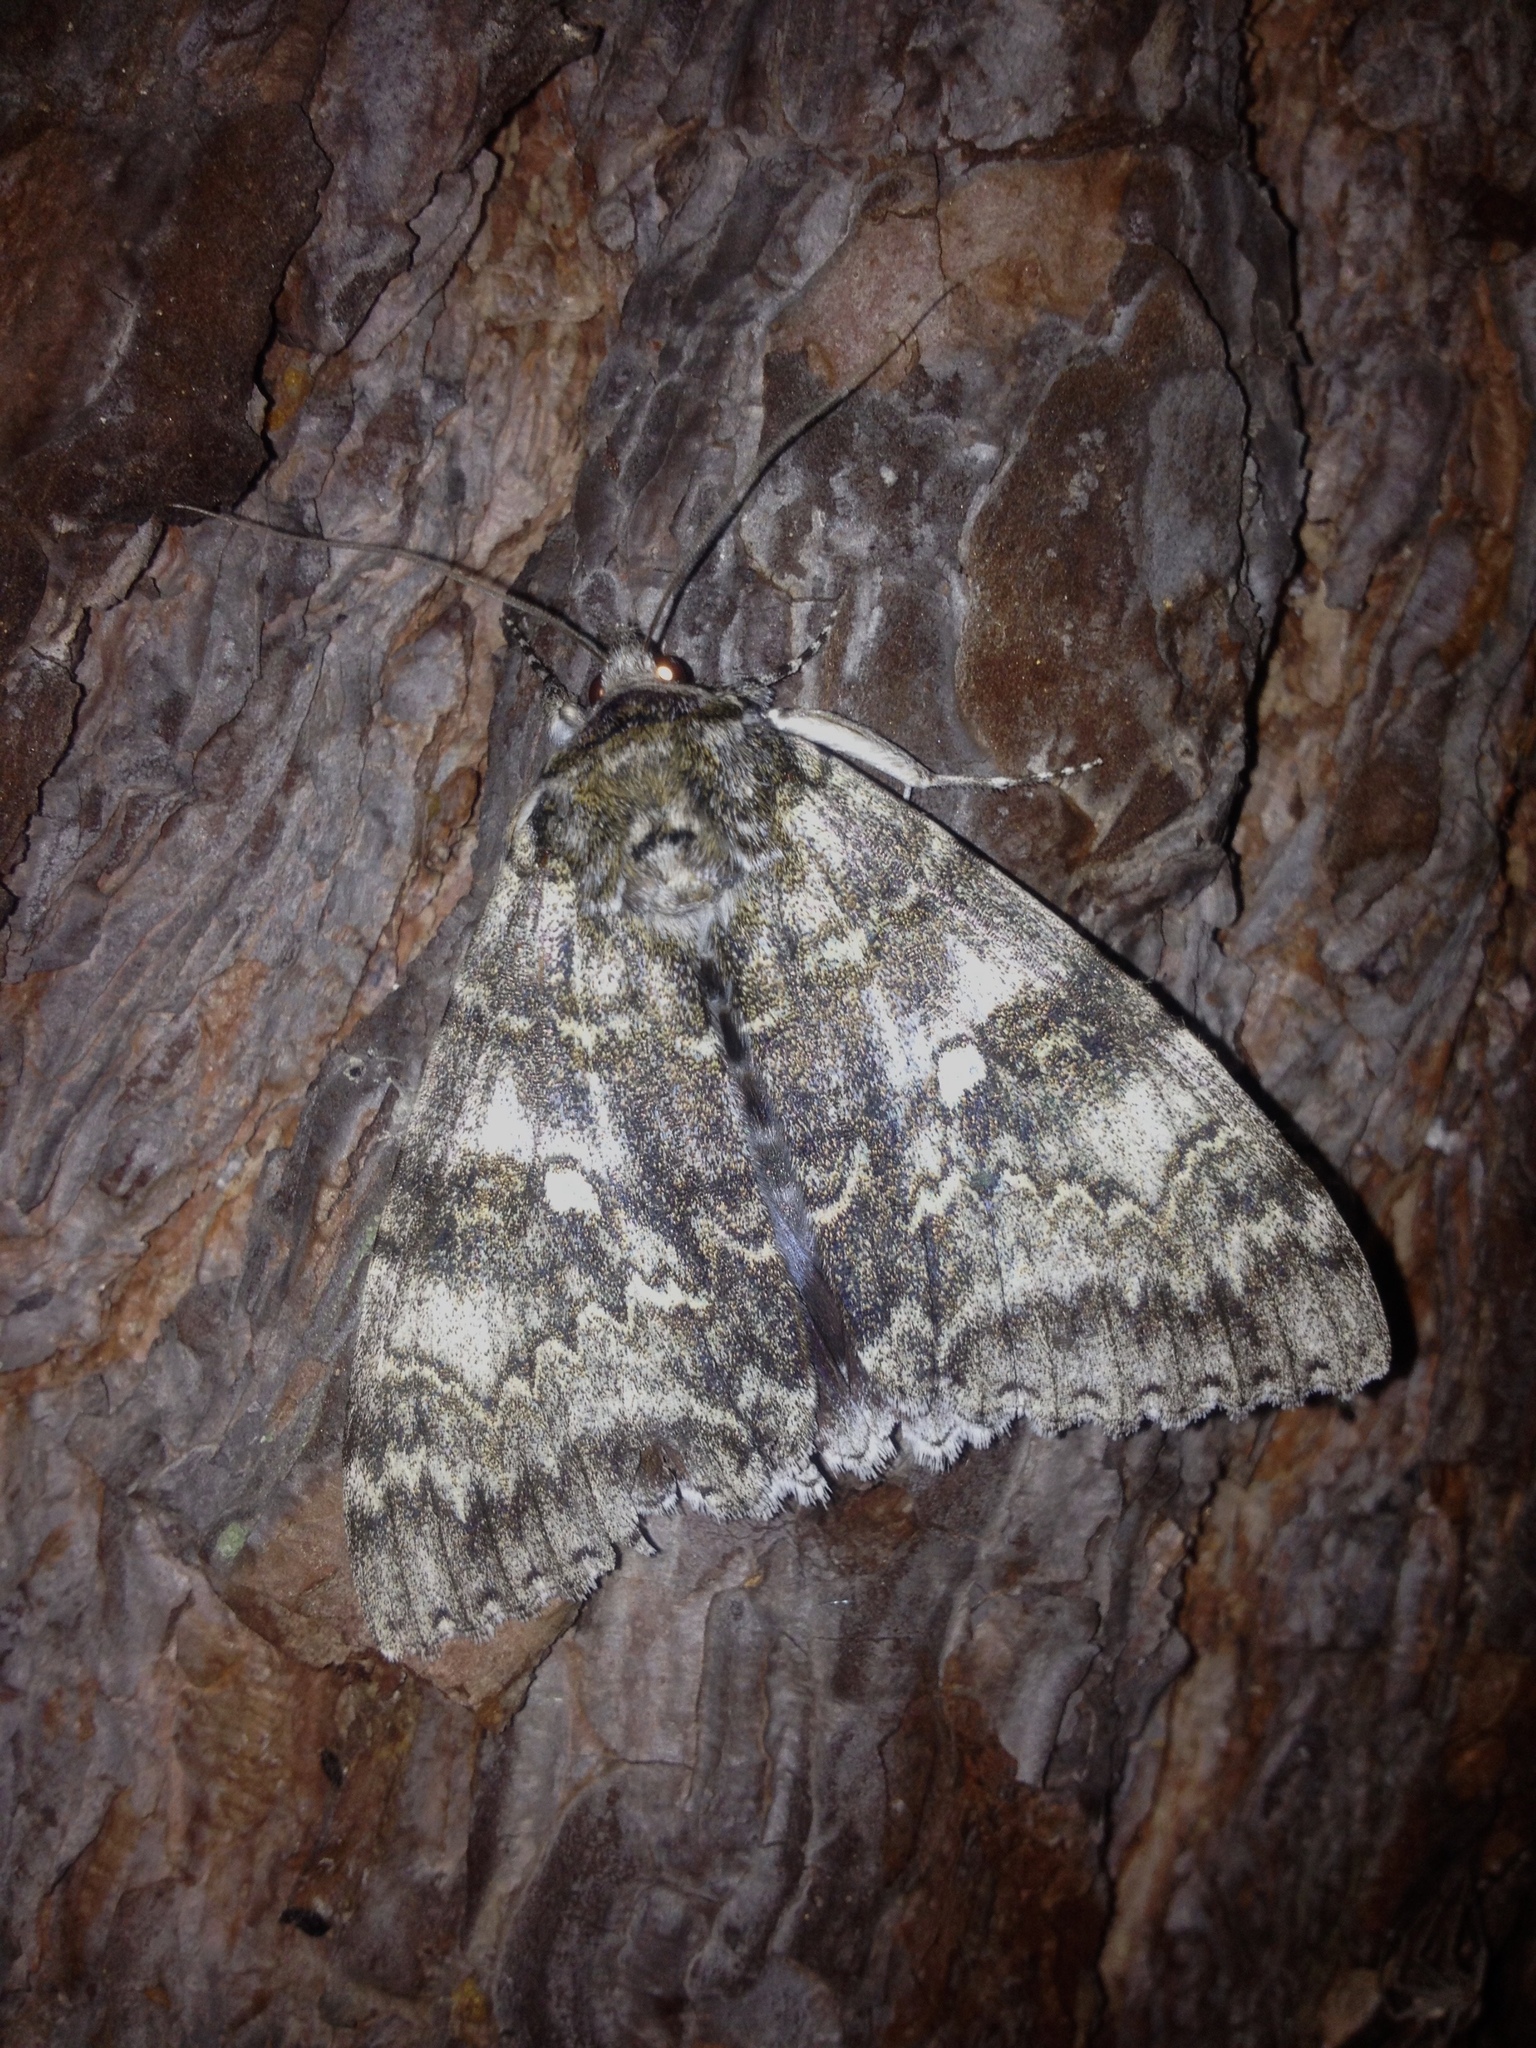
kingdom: Animalia
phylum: Arthropoda
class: Insecta
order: Lepidoptera
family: Erebidae
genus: Catocala
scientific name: Catocala fraxini
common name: Clifden nonpareil
